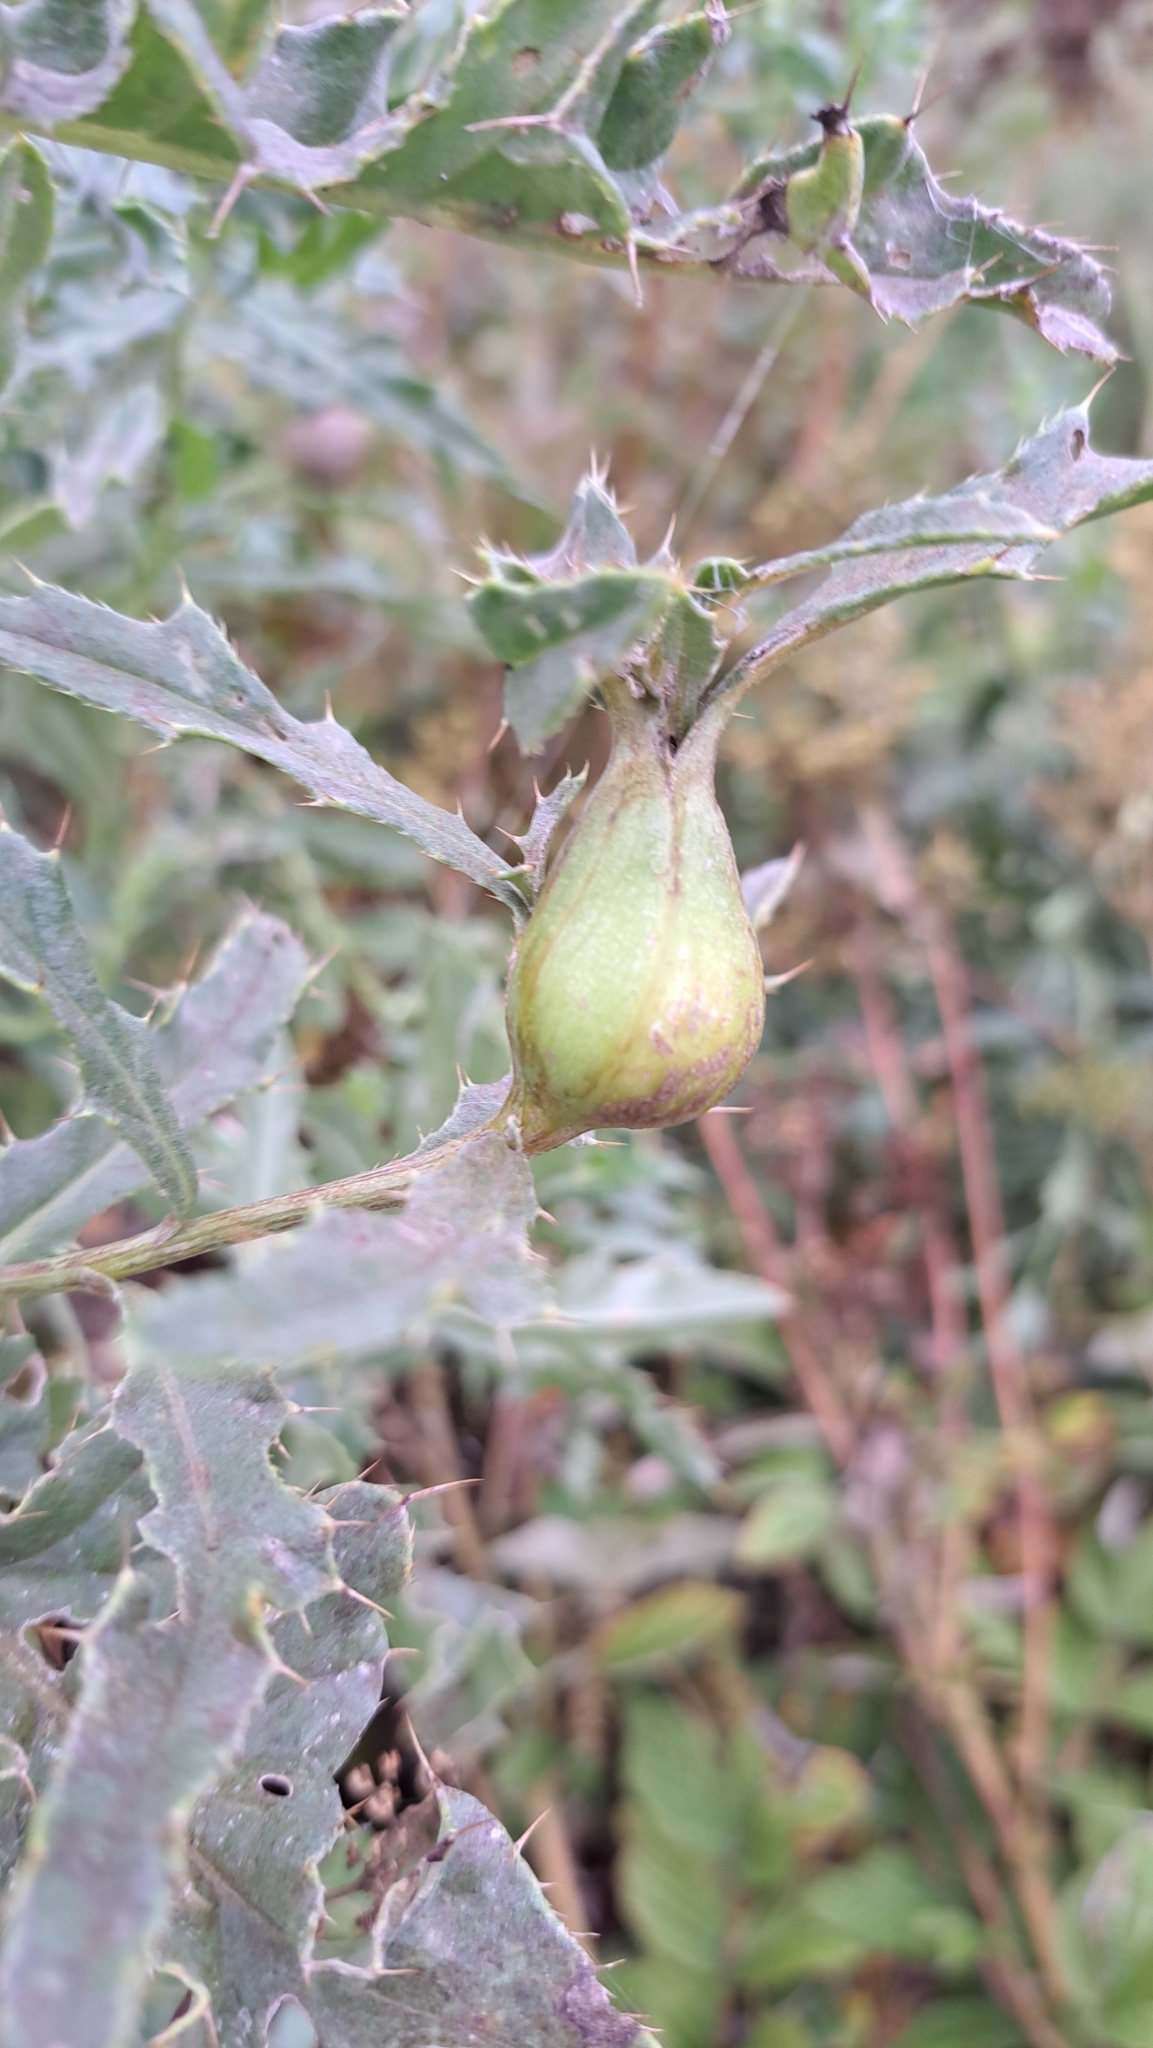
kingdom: Animalia
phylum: Arthropoda
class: Insecta
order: Diptera
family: Tephritidae
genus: Urophora
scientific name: Urophora cardui
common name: Fruit fly
